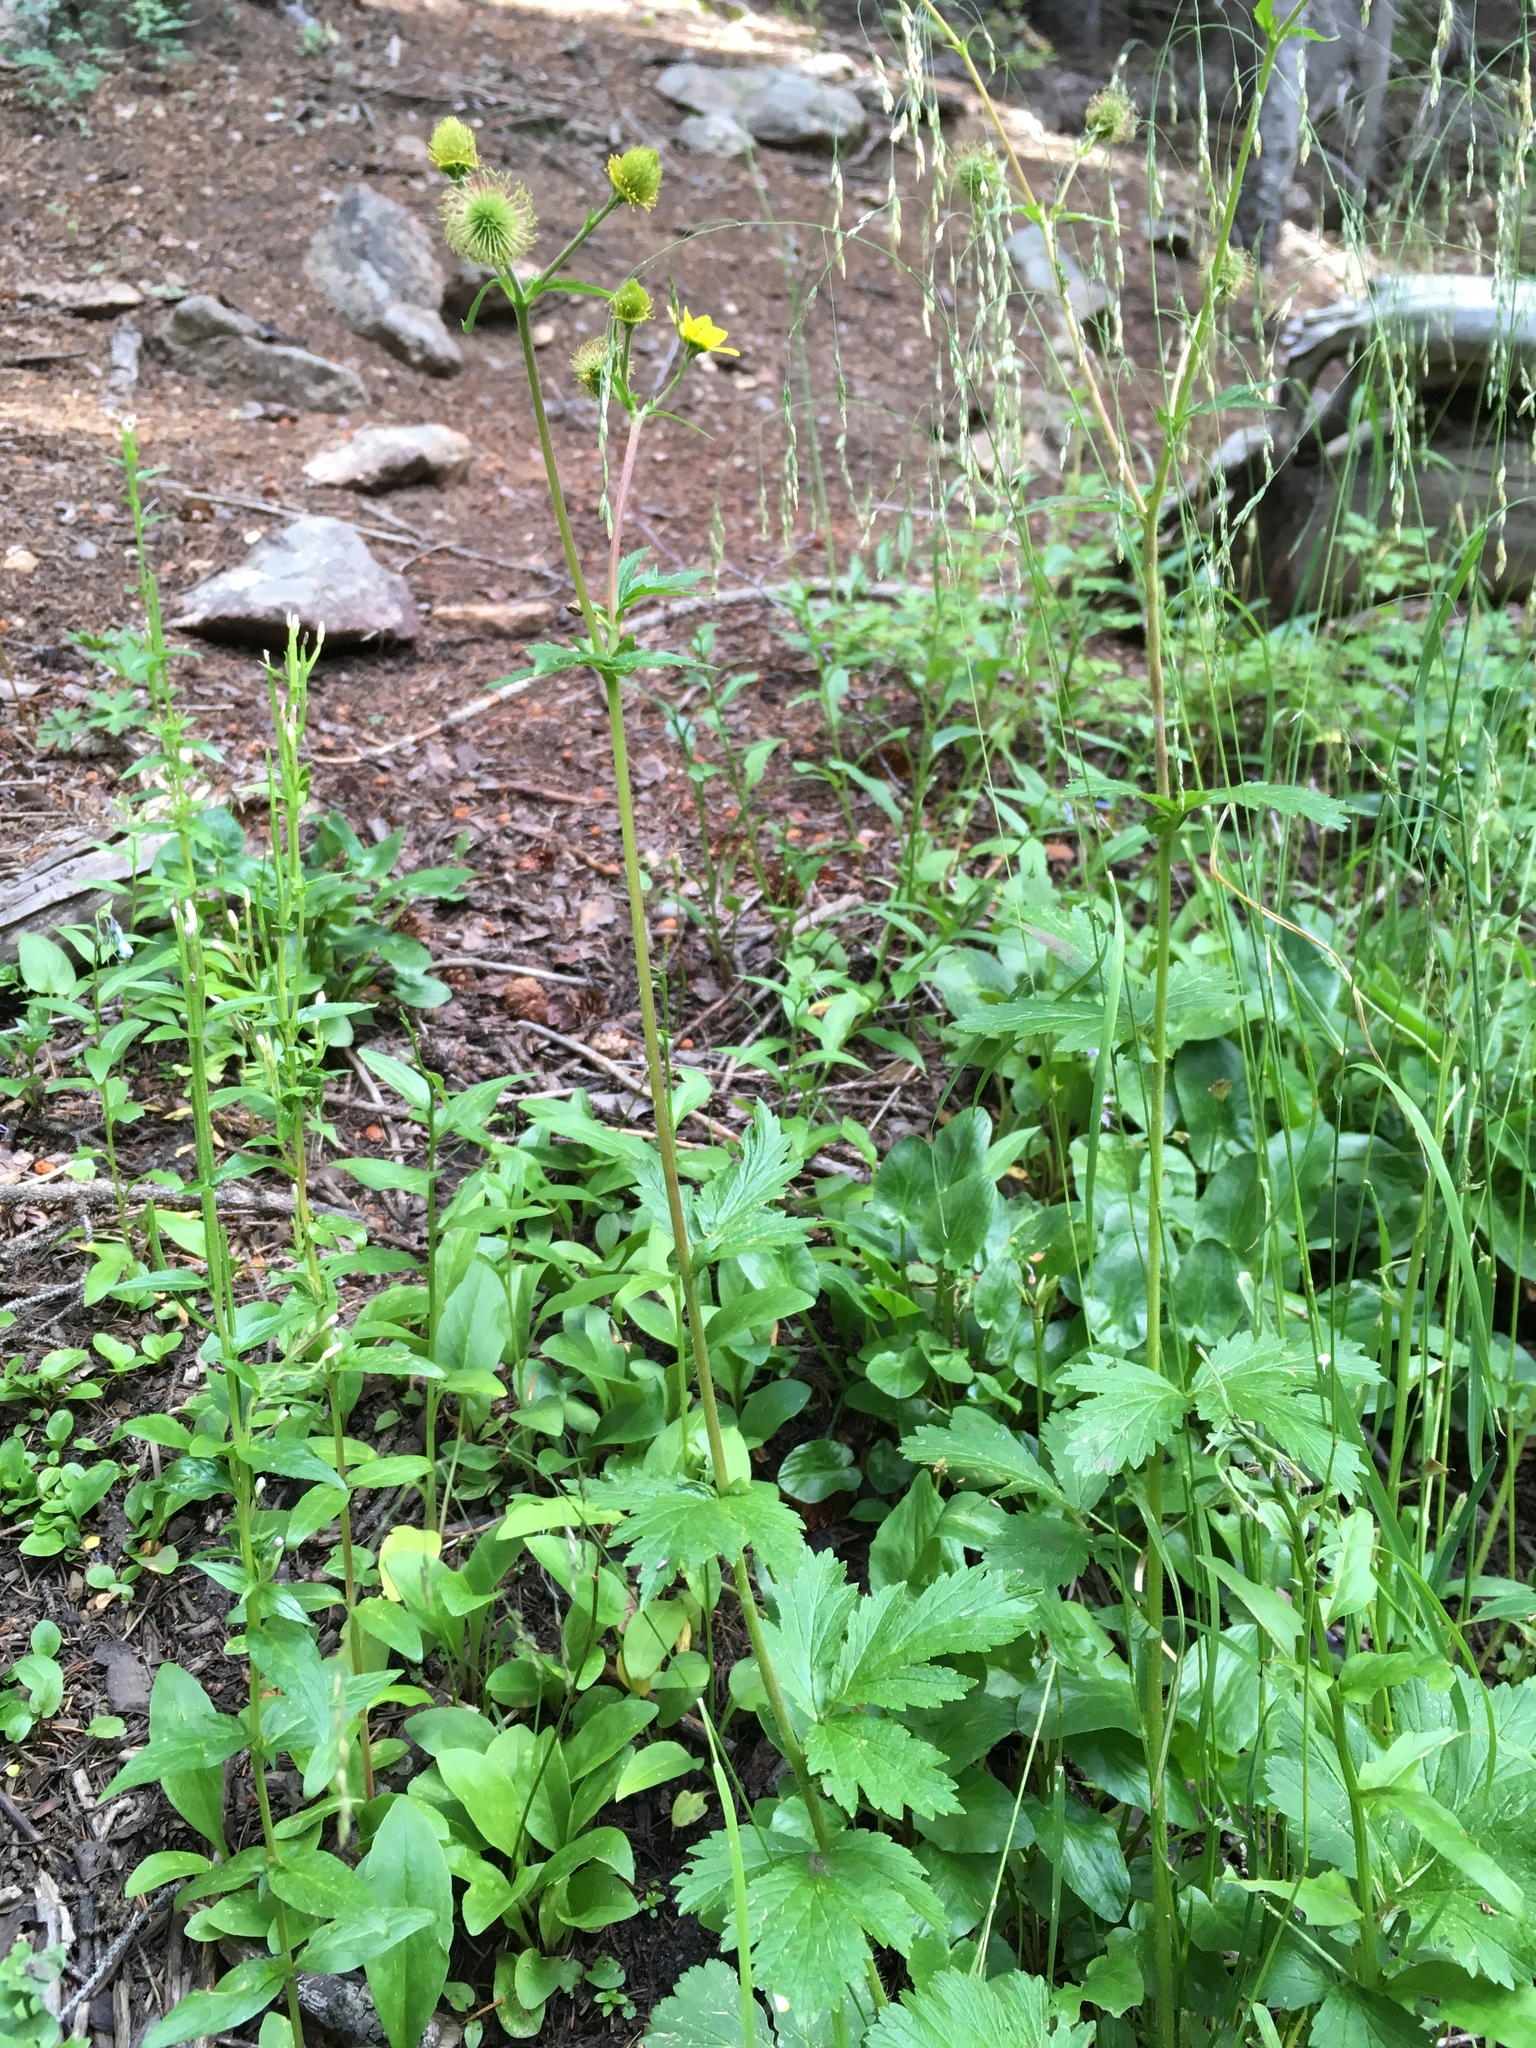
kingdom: Plantae
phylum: Tracheophyta
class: Magnoliopsida
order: Rosales
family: Rosaceae
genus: Geum
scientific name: Geum macrophyllum
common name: Large-leaved avens
